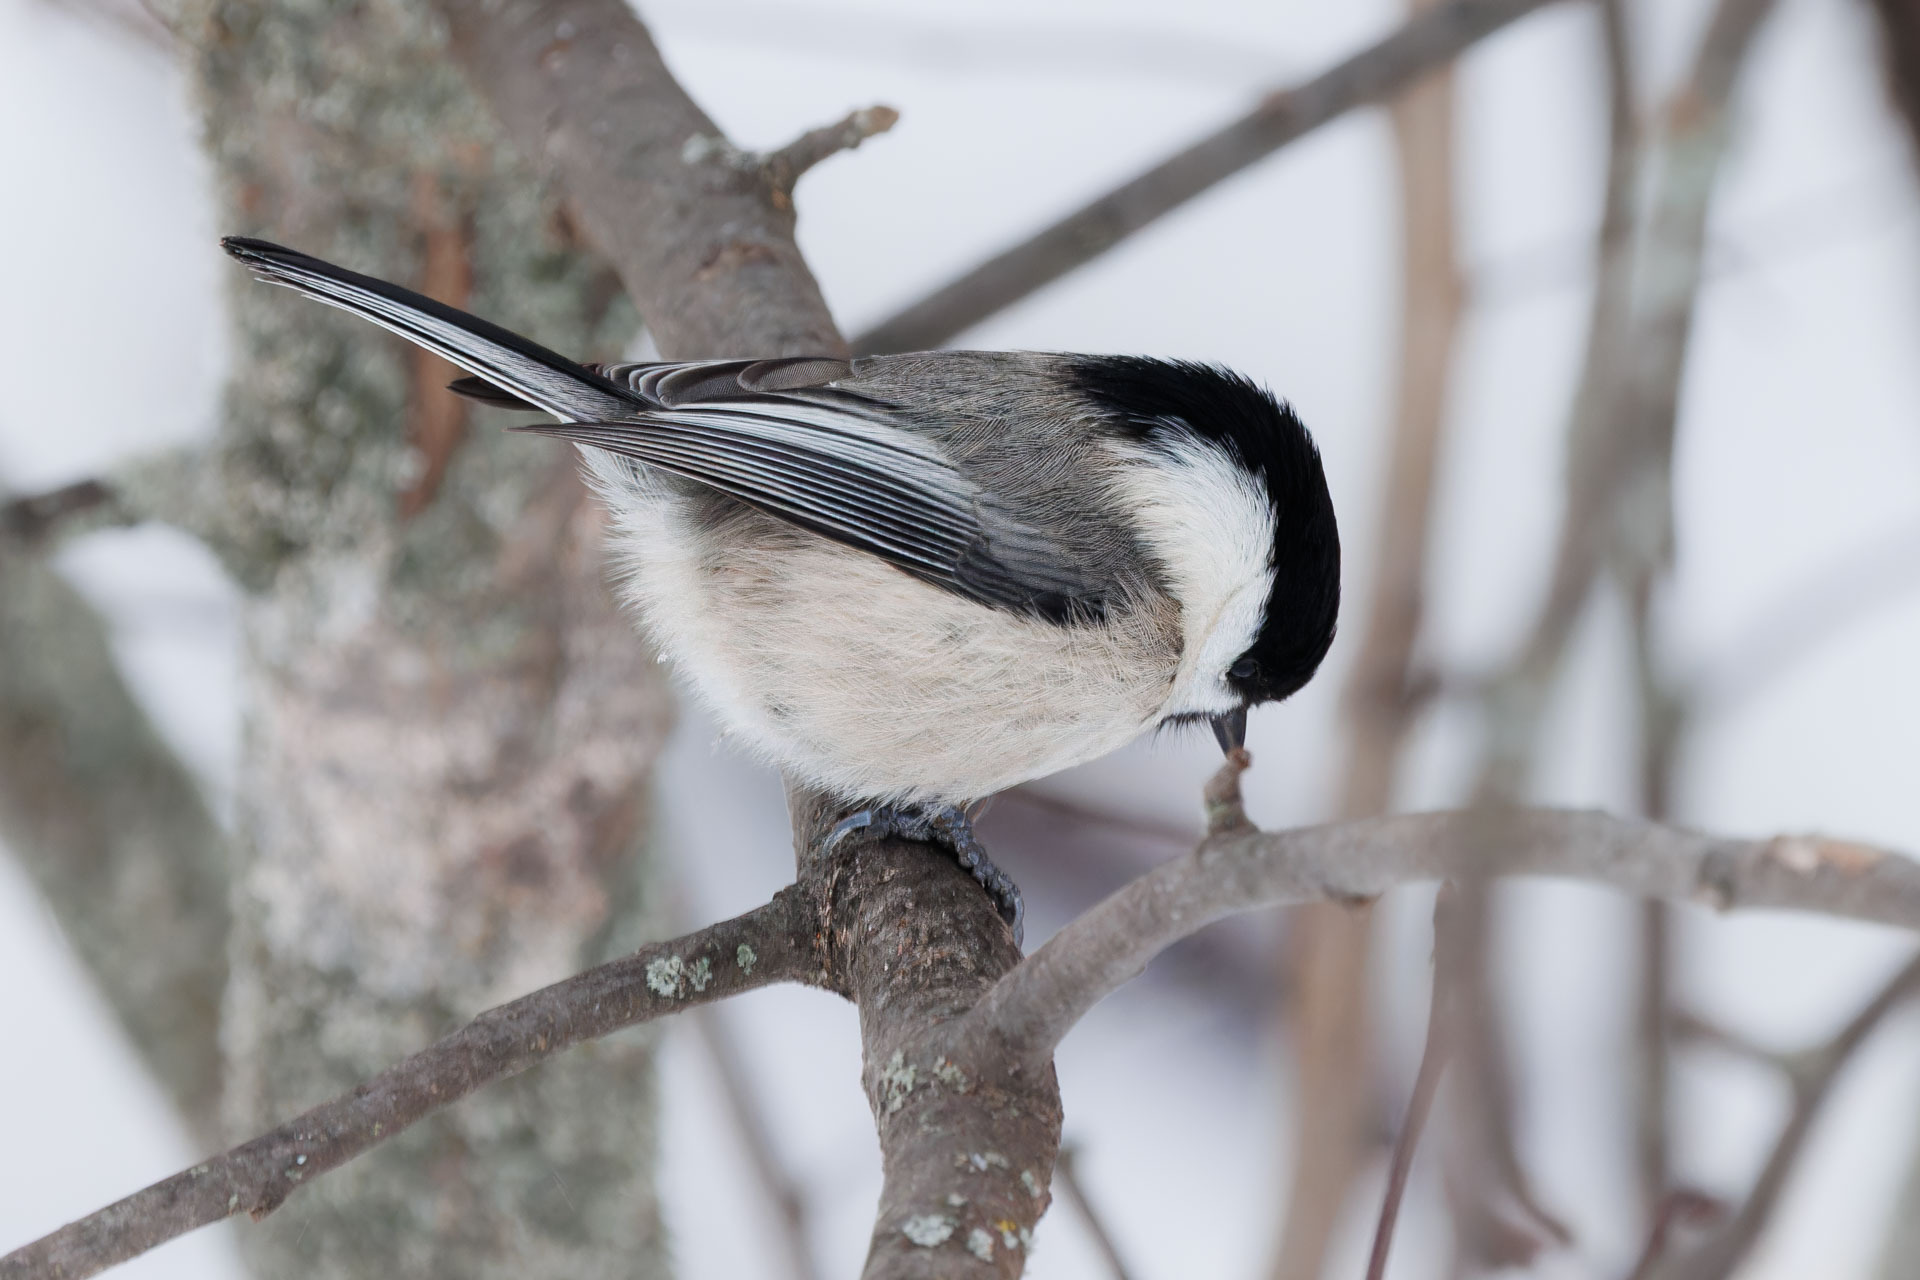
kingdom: Animalia
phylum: Chordata
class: Aves
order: Passeriformes
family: Paridae
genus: Poecile
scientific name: Poecile montanus
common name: Willow tit
